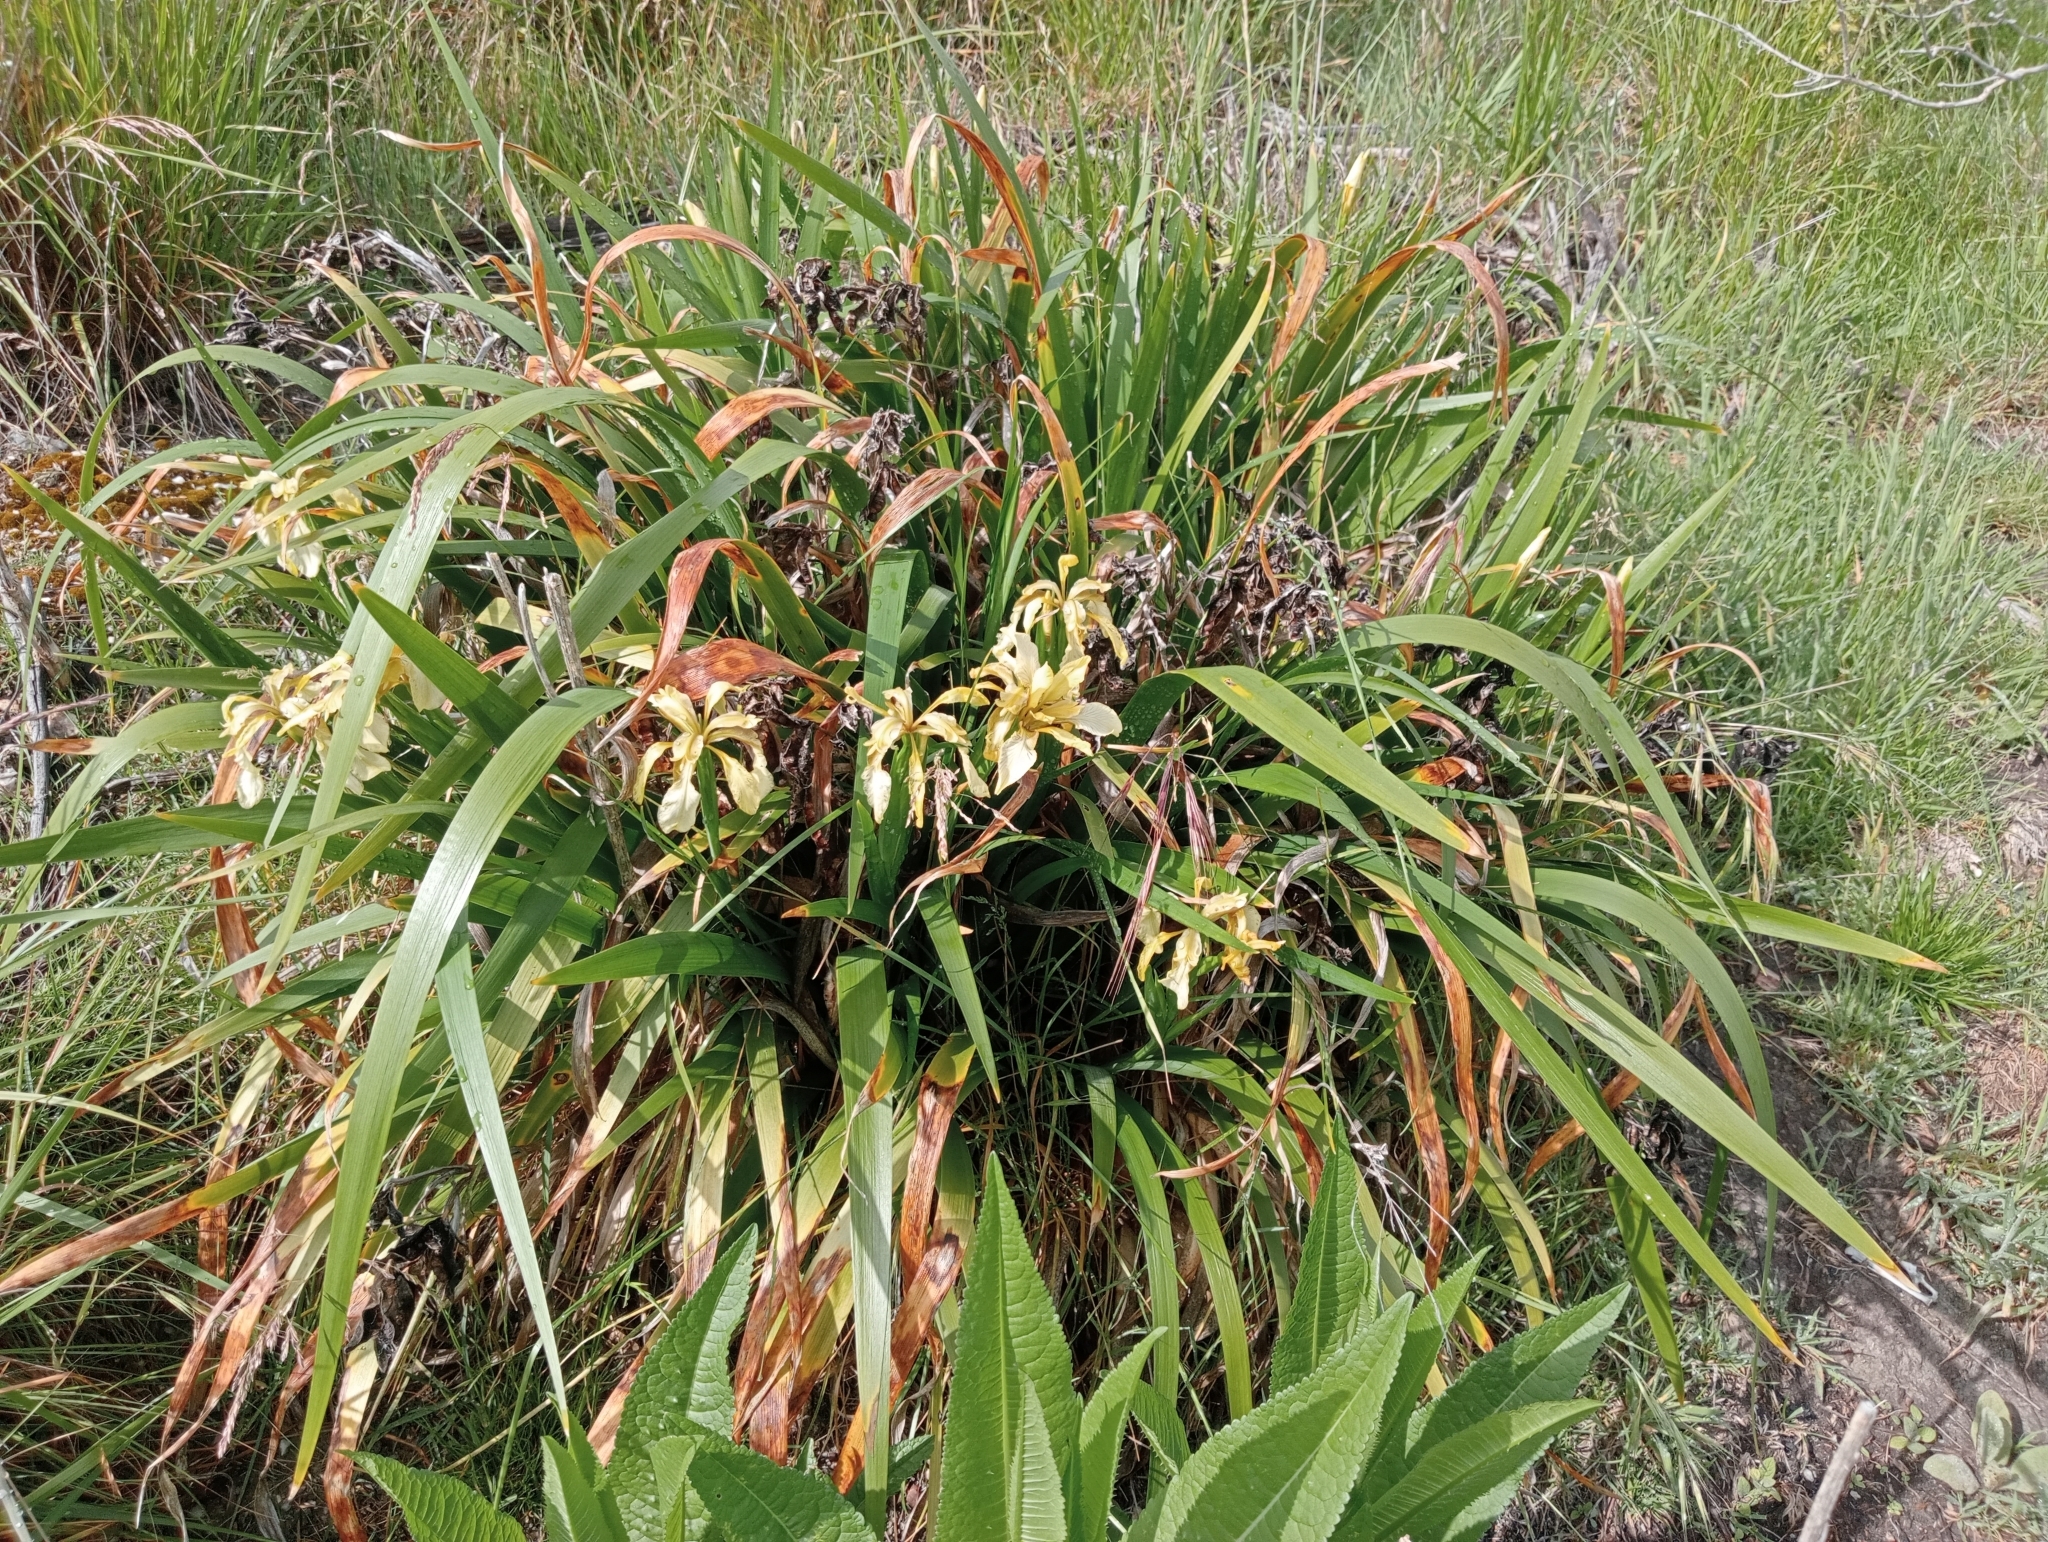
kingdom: Plantae
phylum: Tracheophyta
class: Liliopsida
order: Asparagales
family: Iridaceae
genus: Iris
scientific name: Iris foetidissima
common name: Stinking iris
